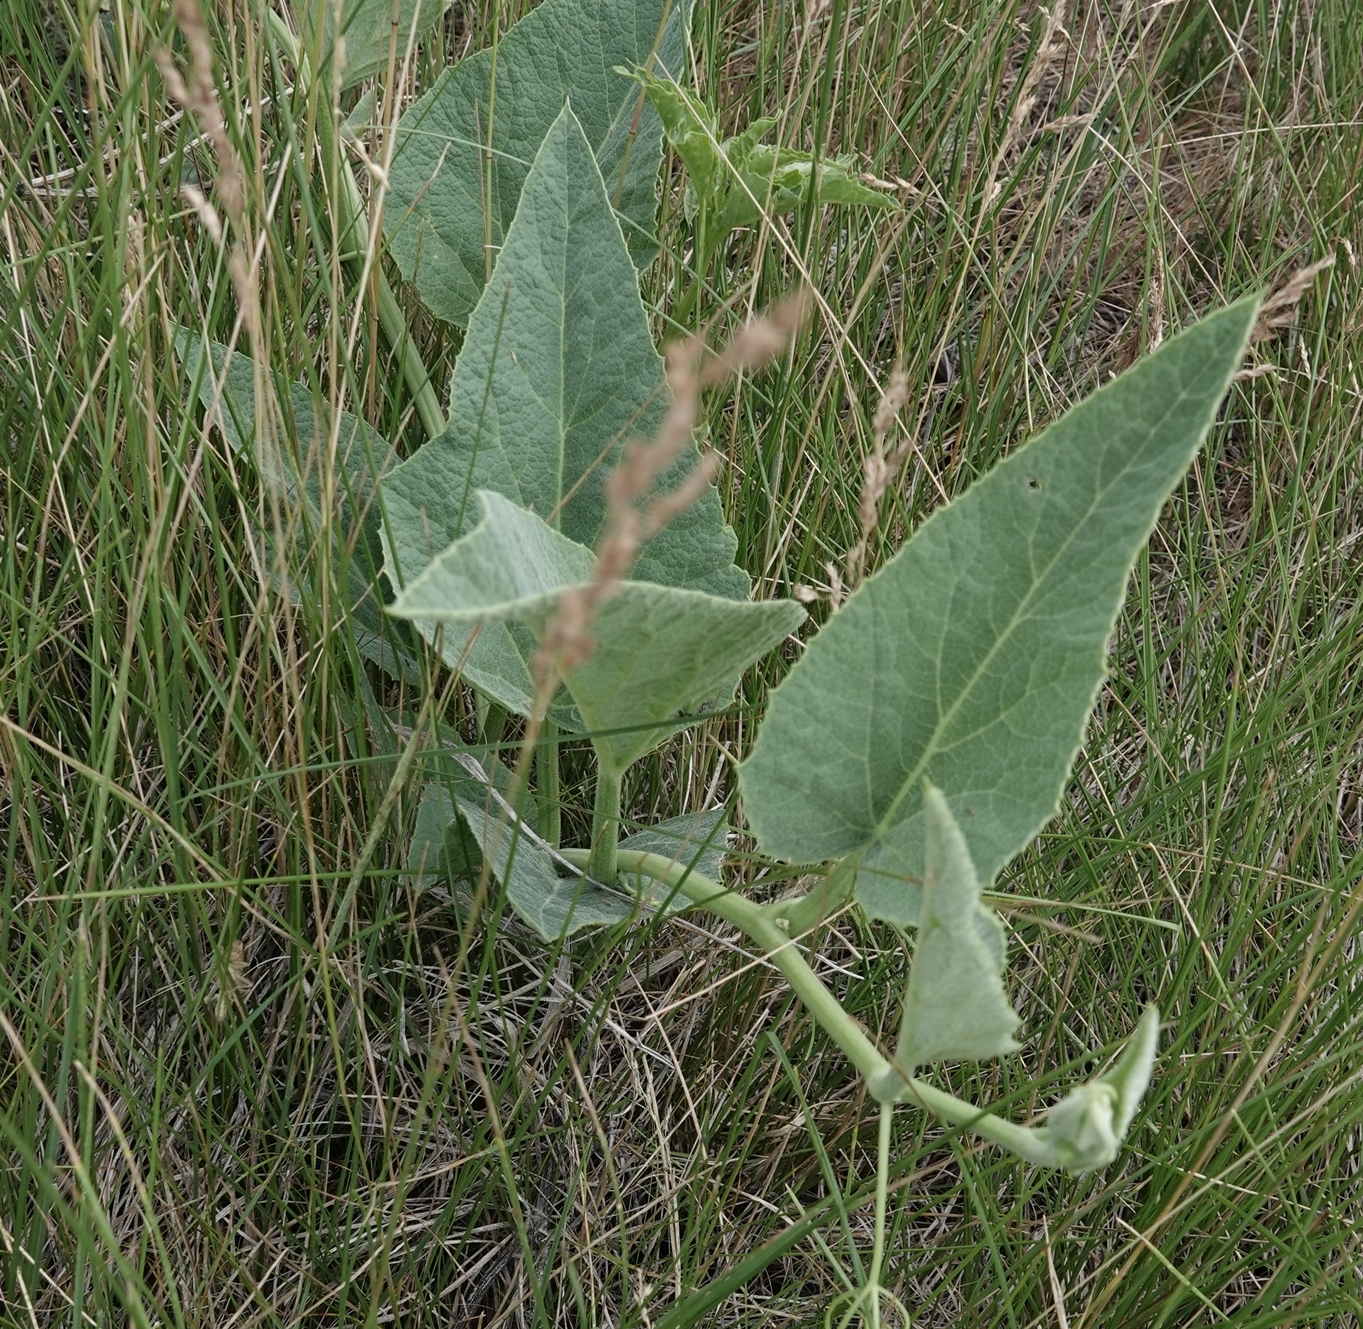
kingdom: Plantae
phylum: Tracheophyta
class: Magnoliopsida
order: Cucurbitales
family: Cucurbitaceae
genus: Cucurbita
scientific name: Cucurbita foetidissima
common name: Buffalo gourd
